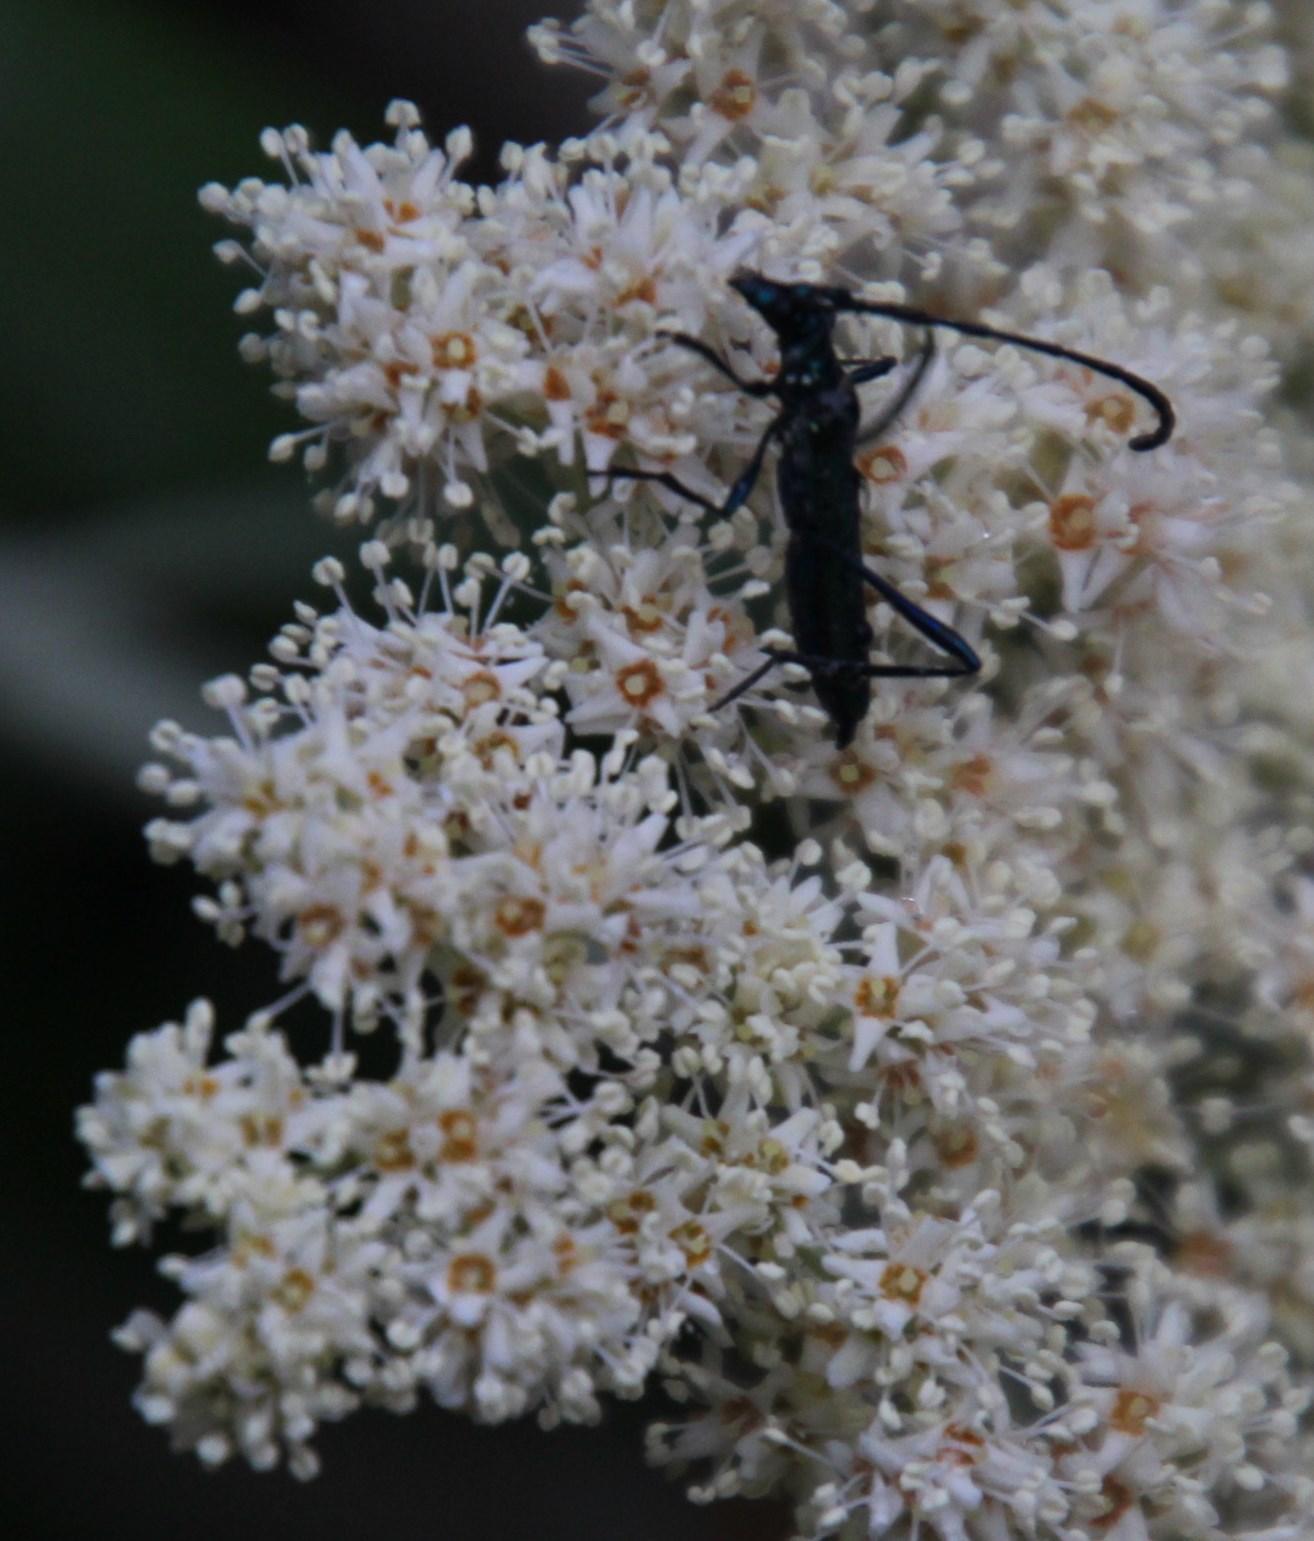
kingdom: Plantae
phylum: Tracheophyta
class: Magnoliopsida
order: Lamiales
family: Scrophulariaceae
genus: Buddleja
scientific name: Buddleja saligna
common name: False olive
